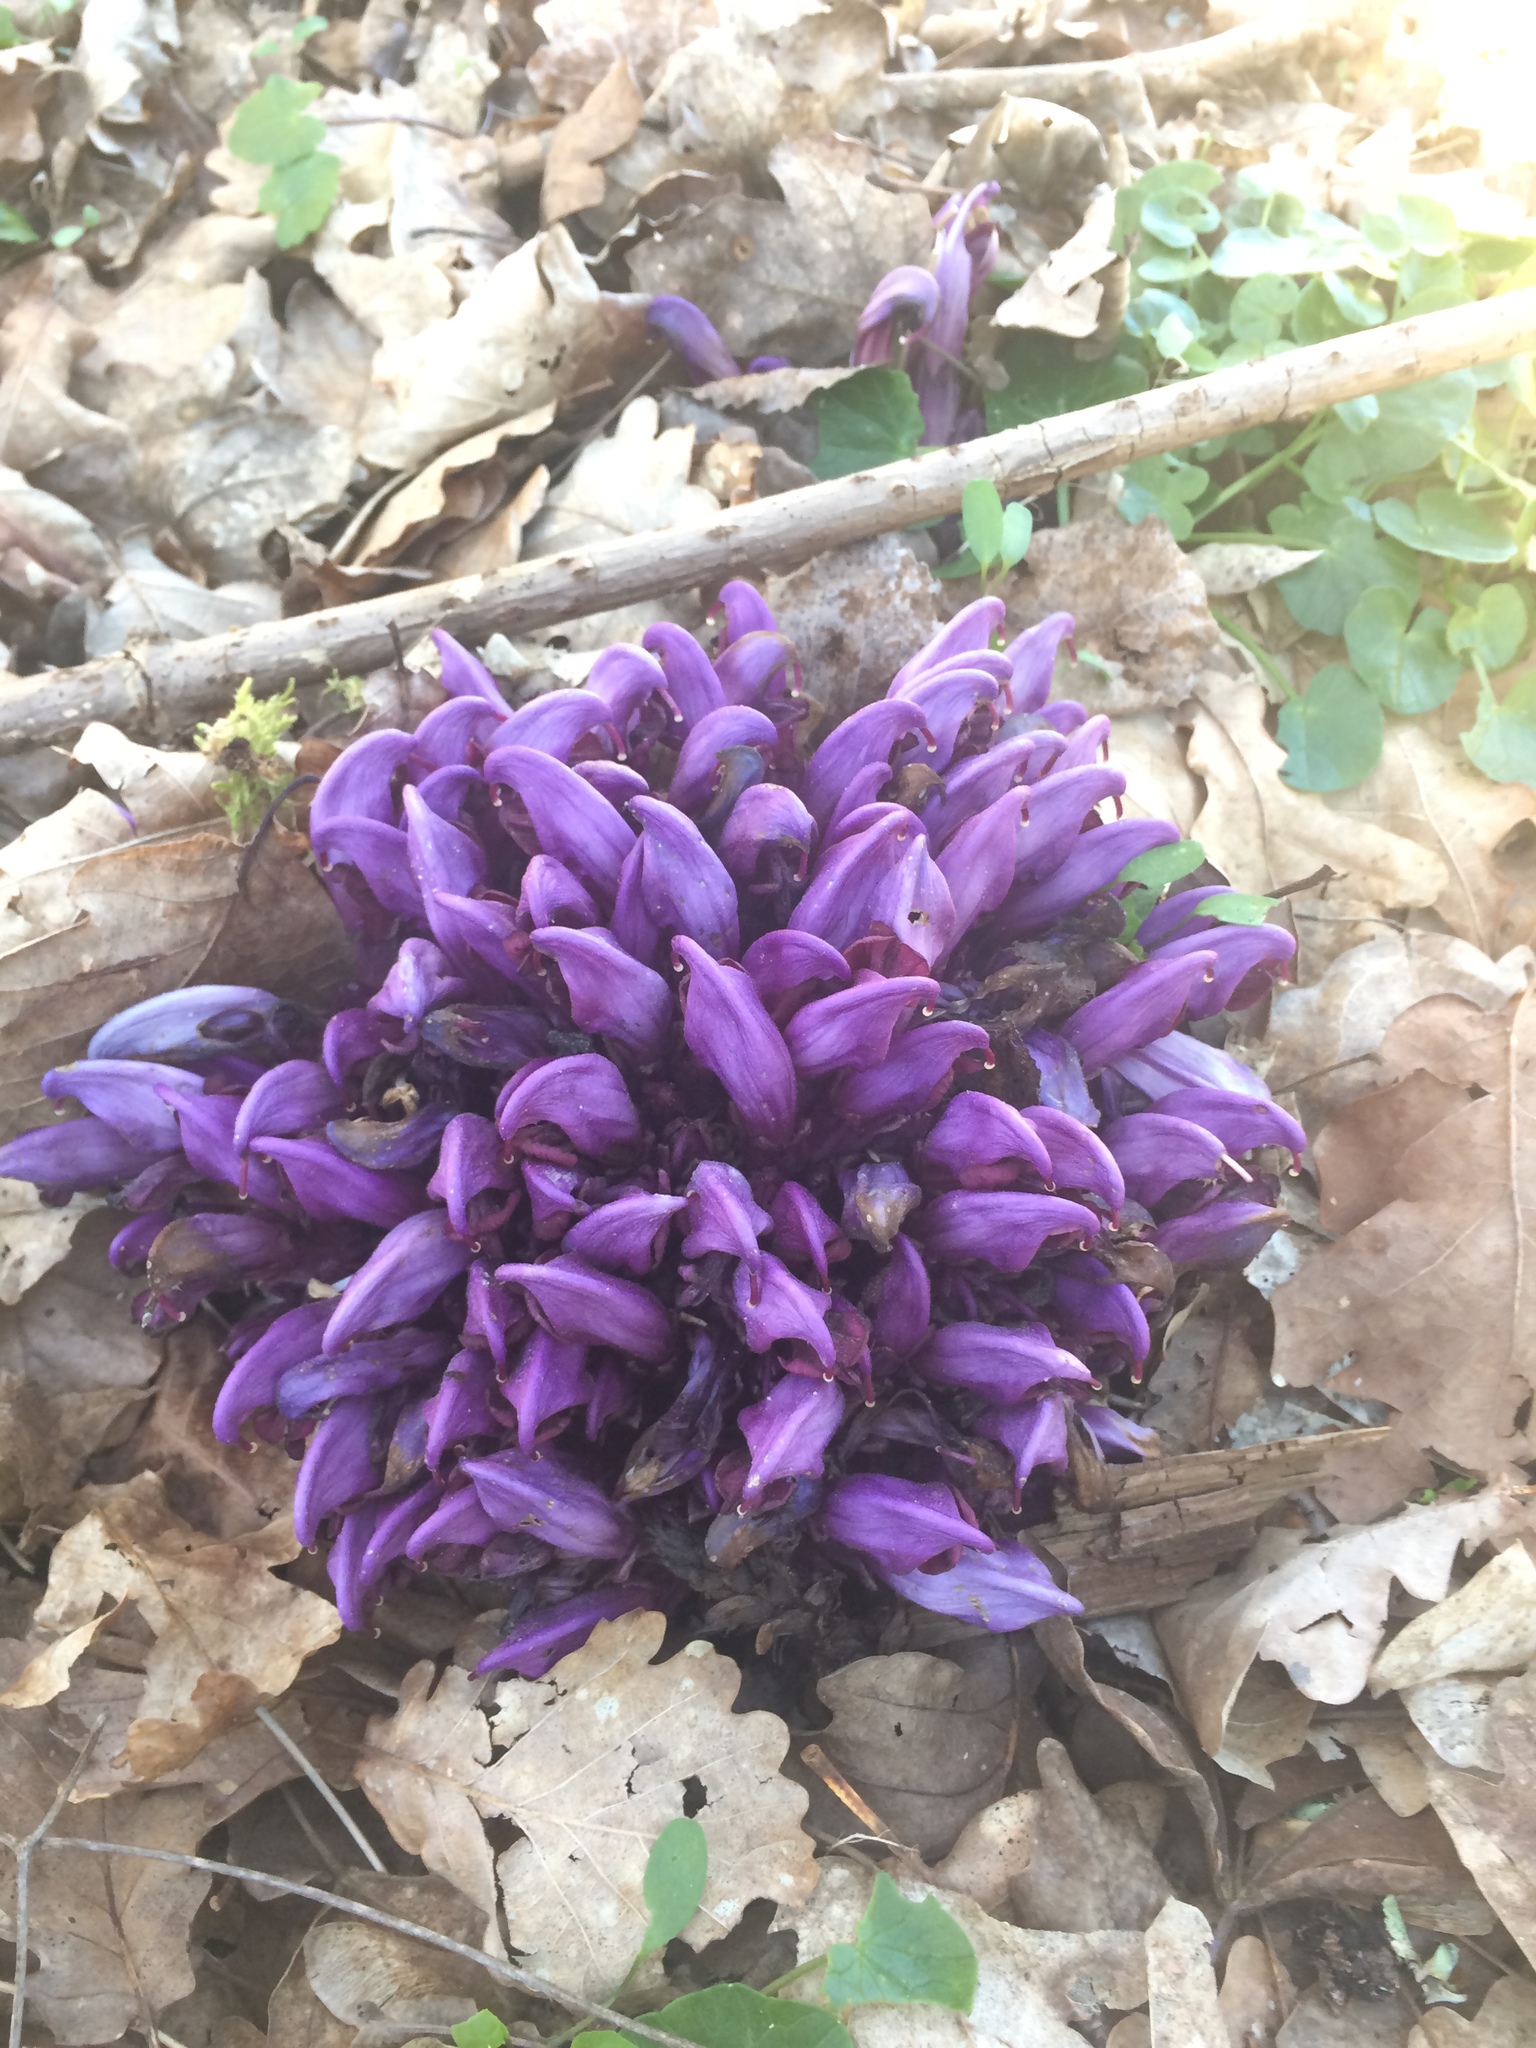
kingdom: Plantae
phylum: Tracheophyta
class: Magnoliopsida
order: Lamiales
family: Orobanchaceae
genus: Lathraea
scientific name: Lathraea clandestina
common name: Purple toothwort
